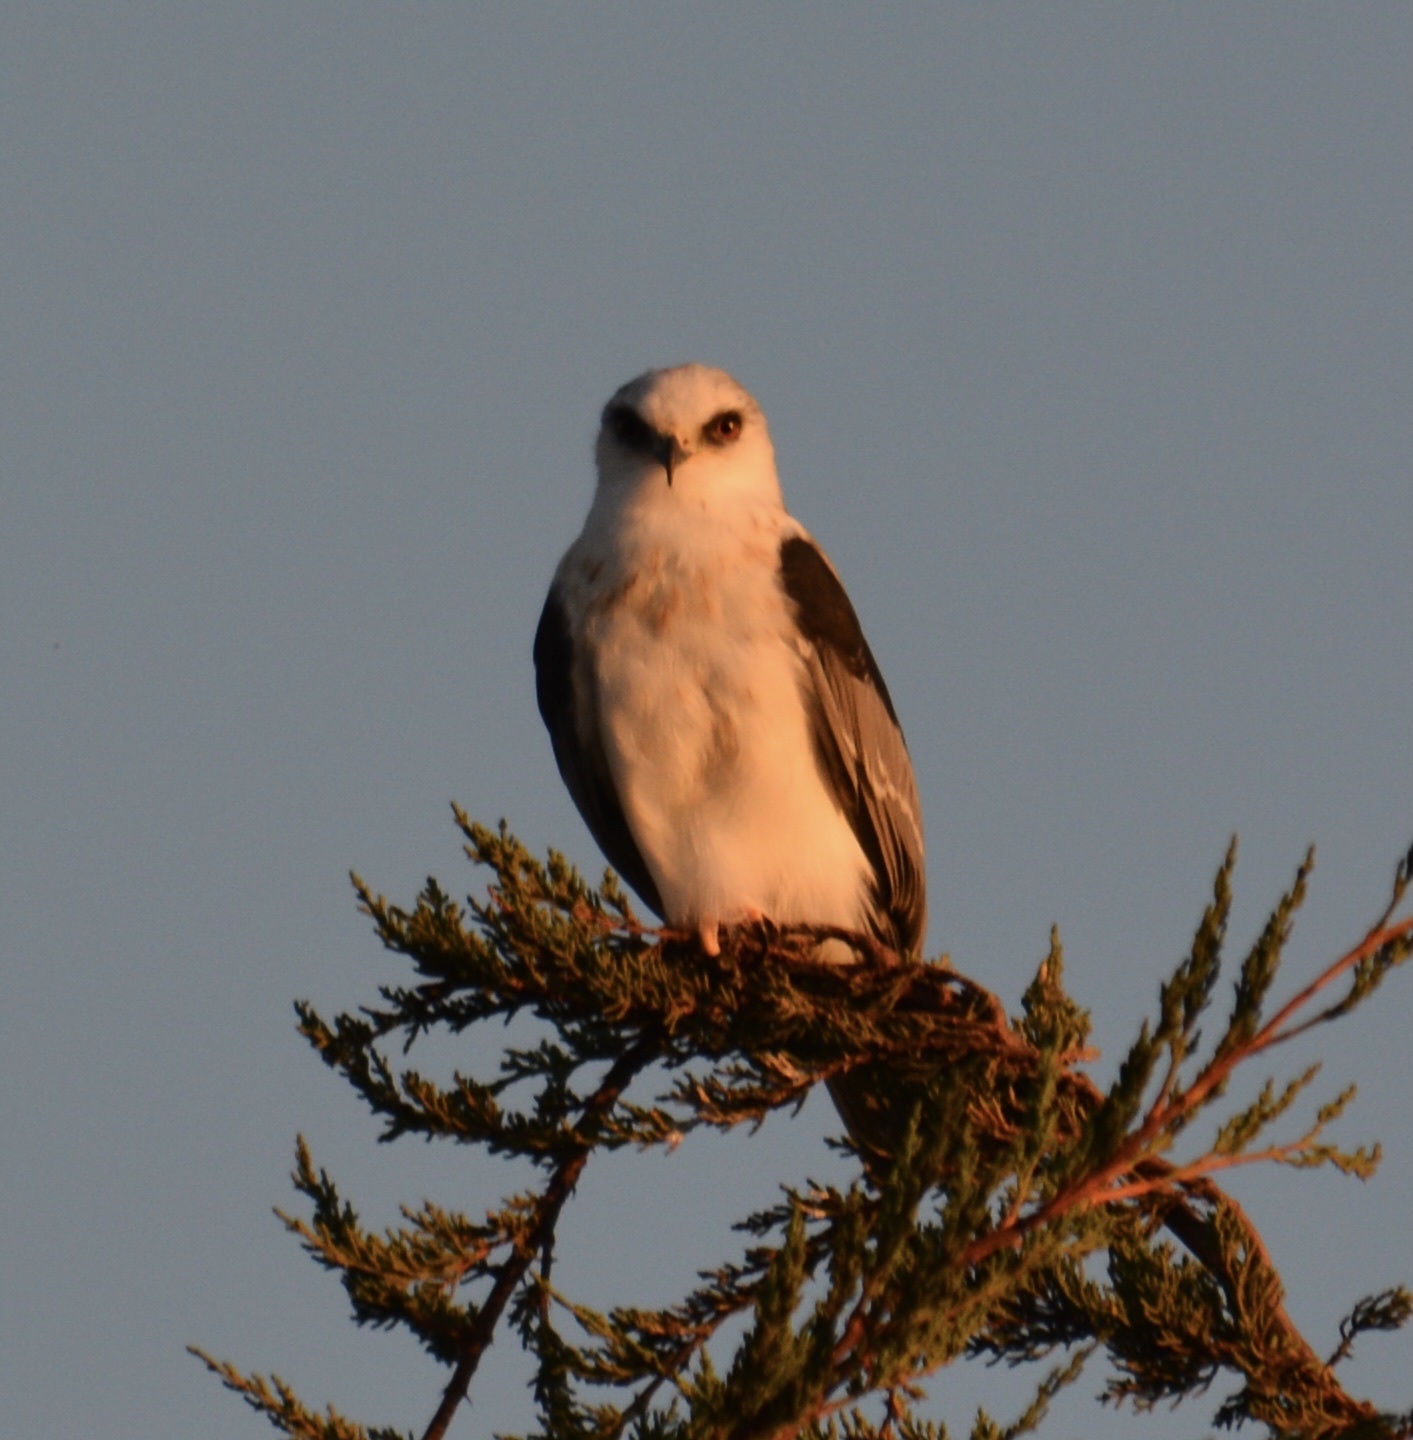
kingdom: Animalia
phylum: Chordata
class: Aves
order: Accipitriformes
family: Accipitridae
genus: Elanus
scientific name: Elanus leucurus
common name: White-tailed kite
